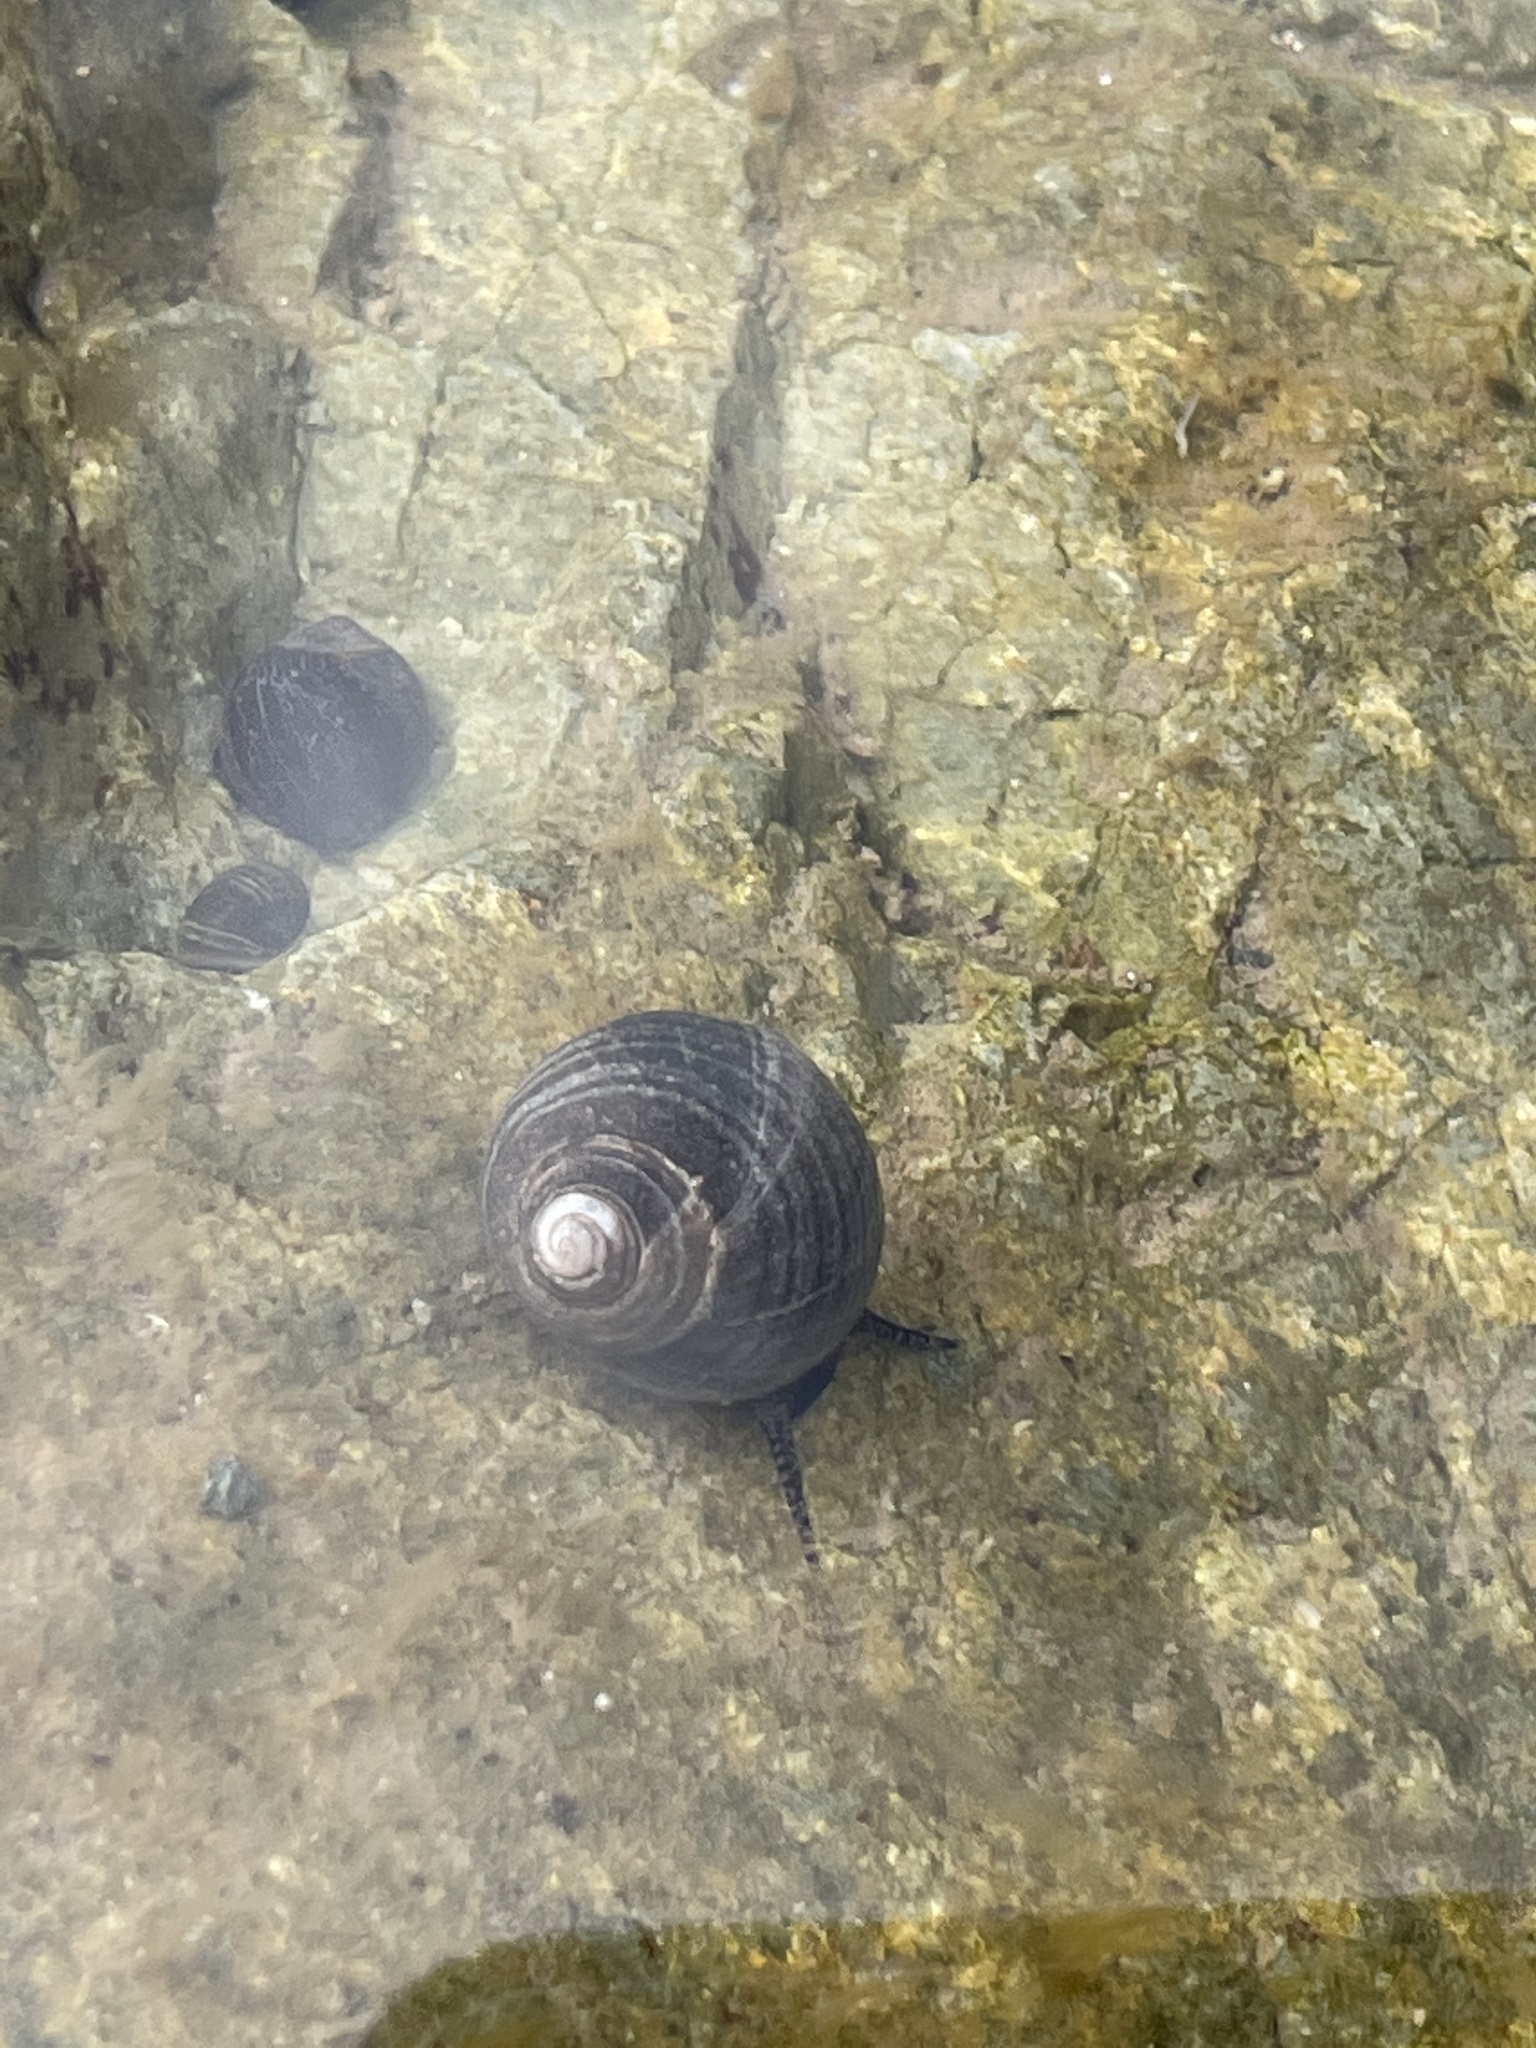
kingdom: Animalia
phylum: Mollusca
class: Gastropoda
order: Littorinimorpha
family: Littorinidae
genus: Littorina
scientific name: Littorina littorea
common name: Common periwinkle
